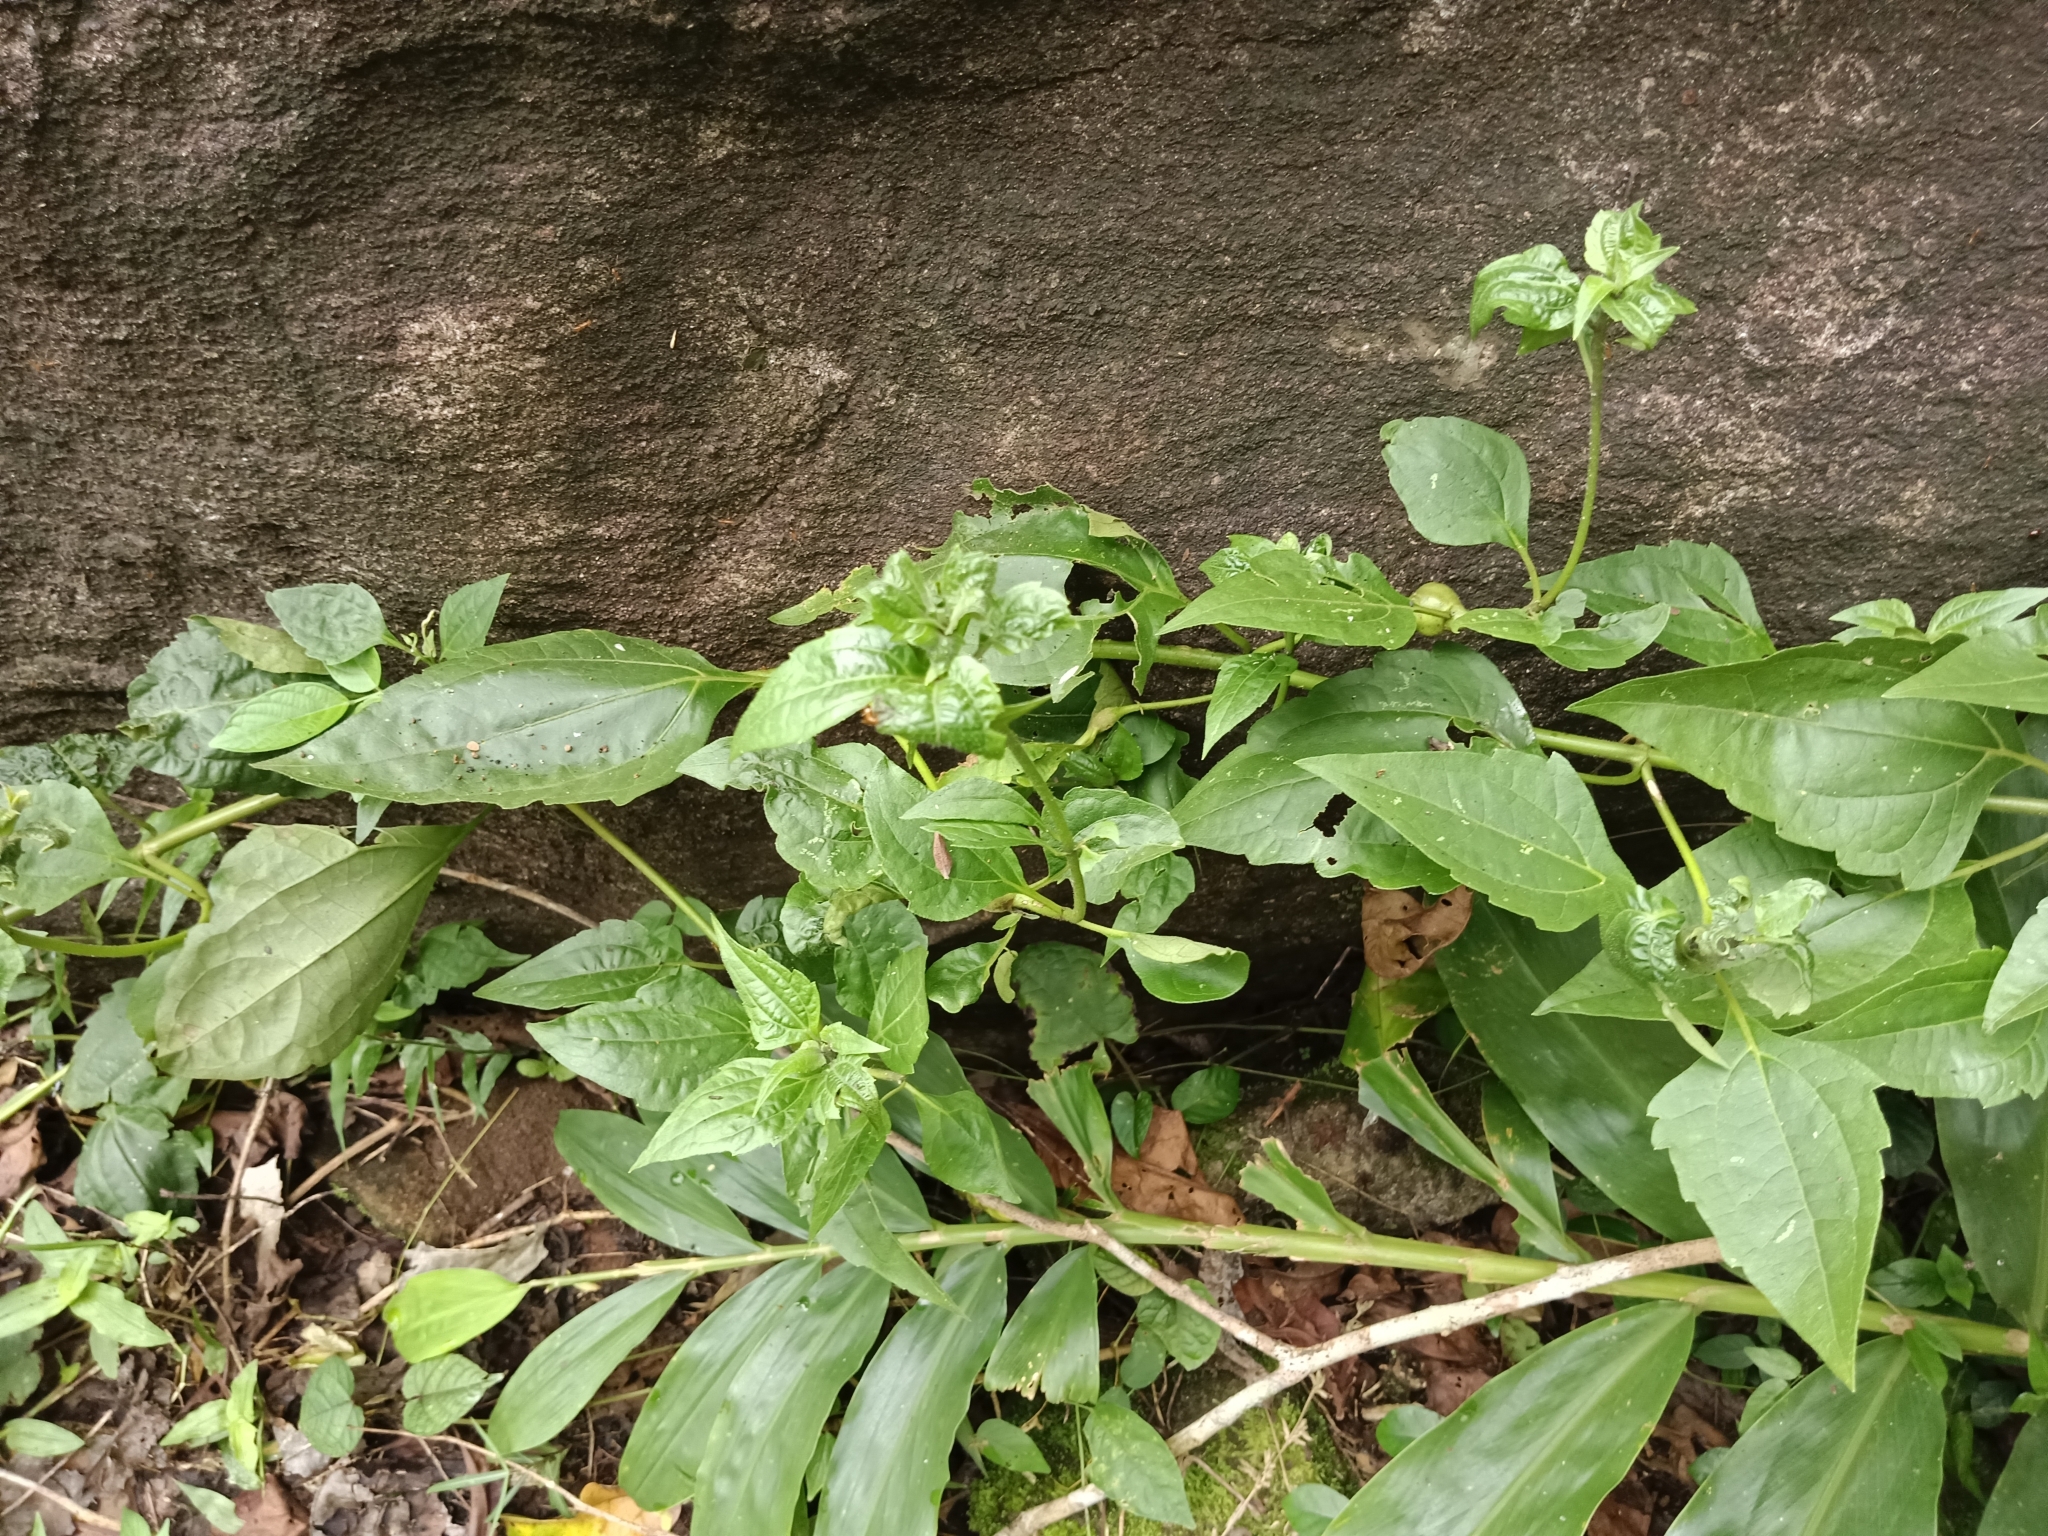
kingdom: Plantae
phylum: Tracheophyta
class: Magnoliopsida
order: Asterales
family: Asteraceae
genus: Chromolaena
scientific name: Chromolaena odorata
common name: Siamweed
